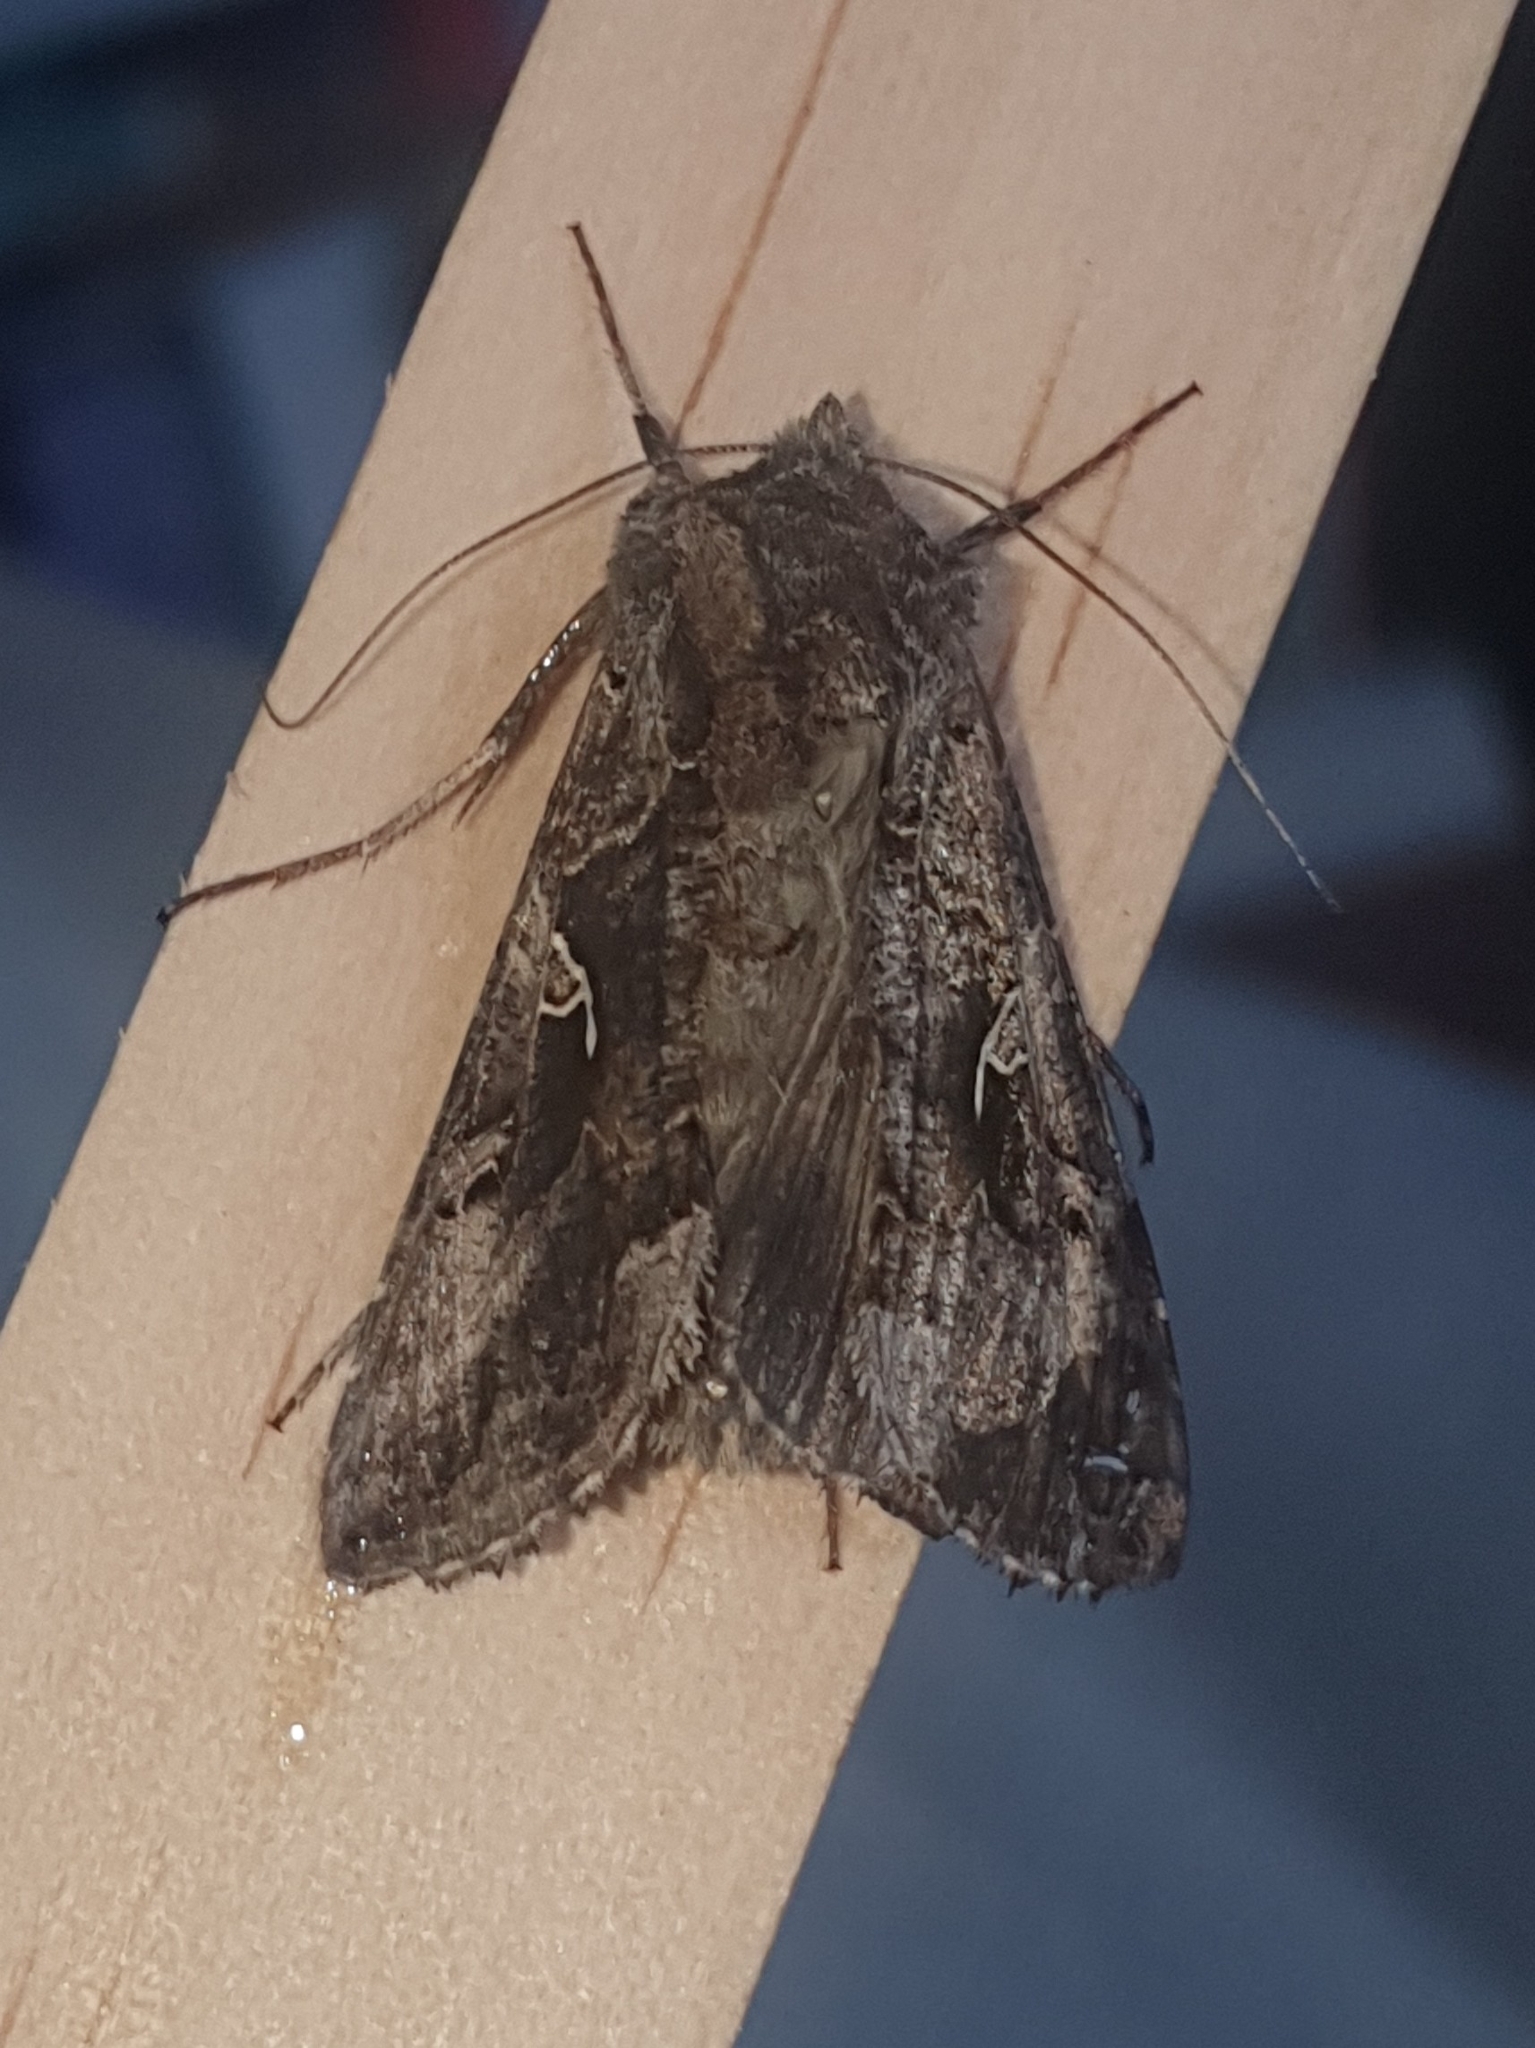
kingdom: Animalia
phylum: Arthropoda
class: Insecta
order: Lepidoptera
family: Noctuidae
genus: Autographa
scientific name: Autographa gamma
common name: Silver y
